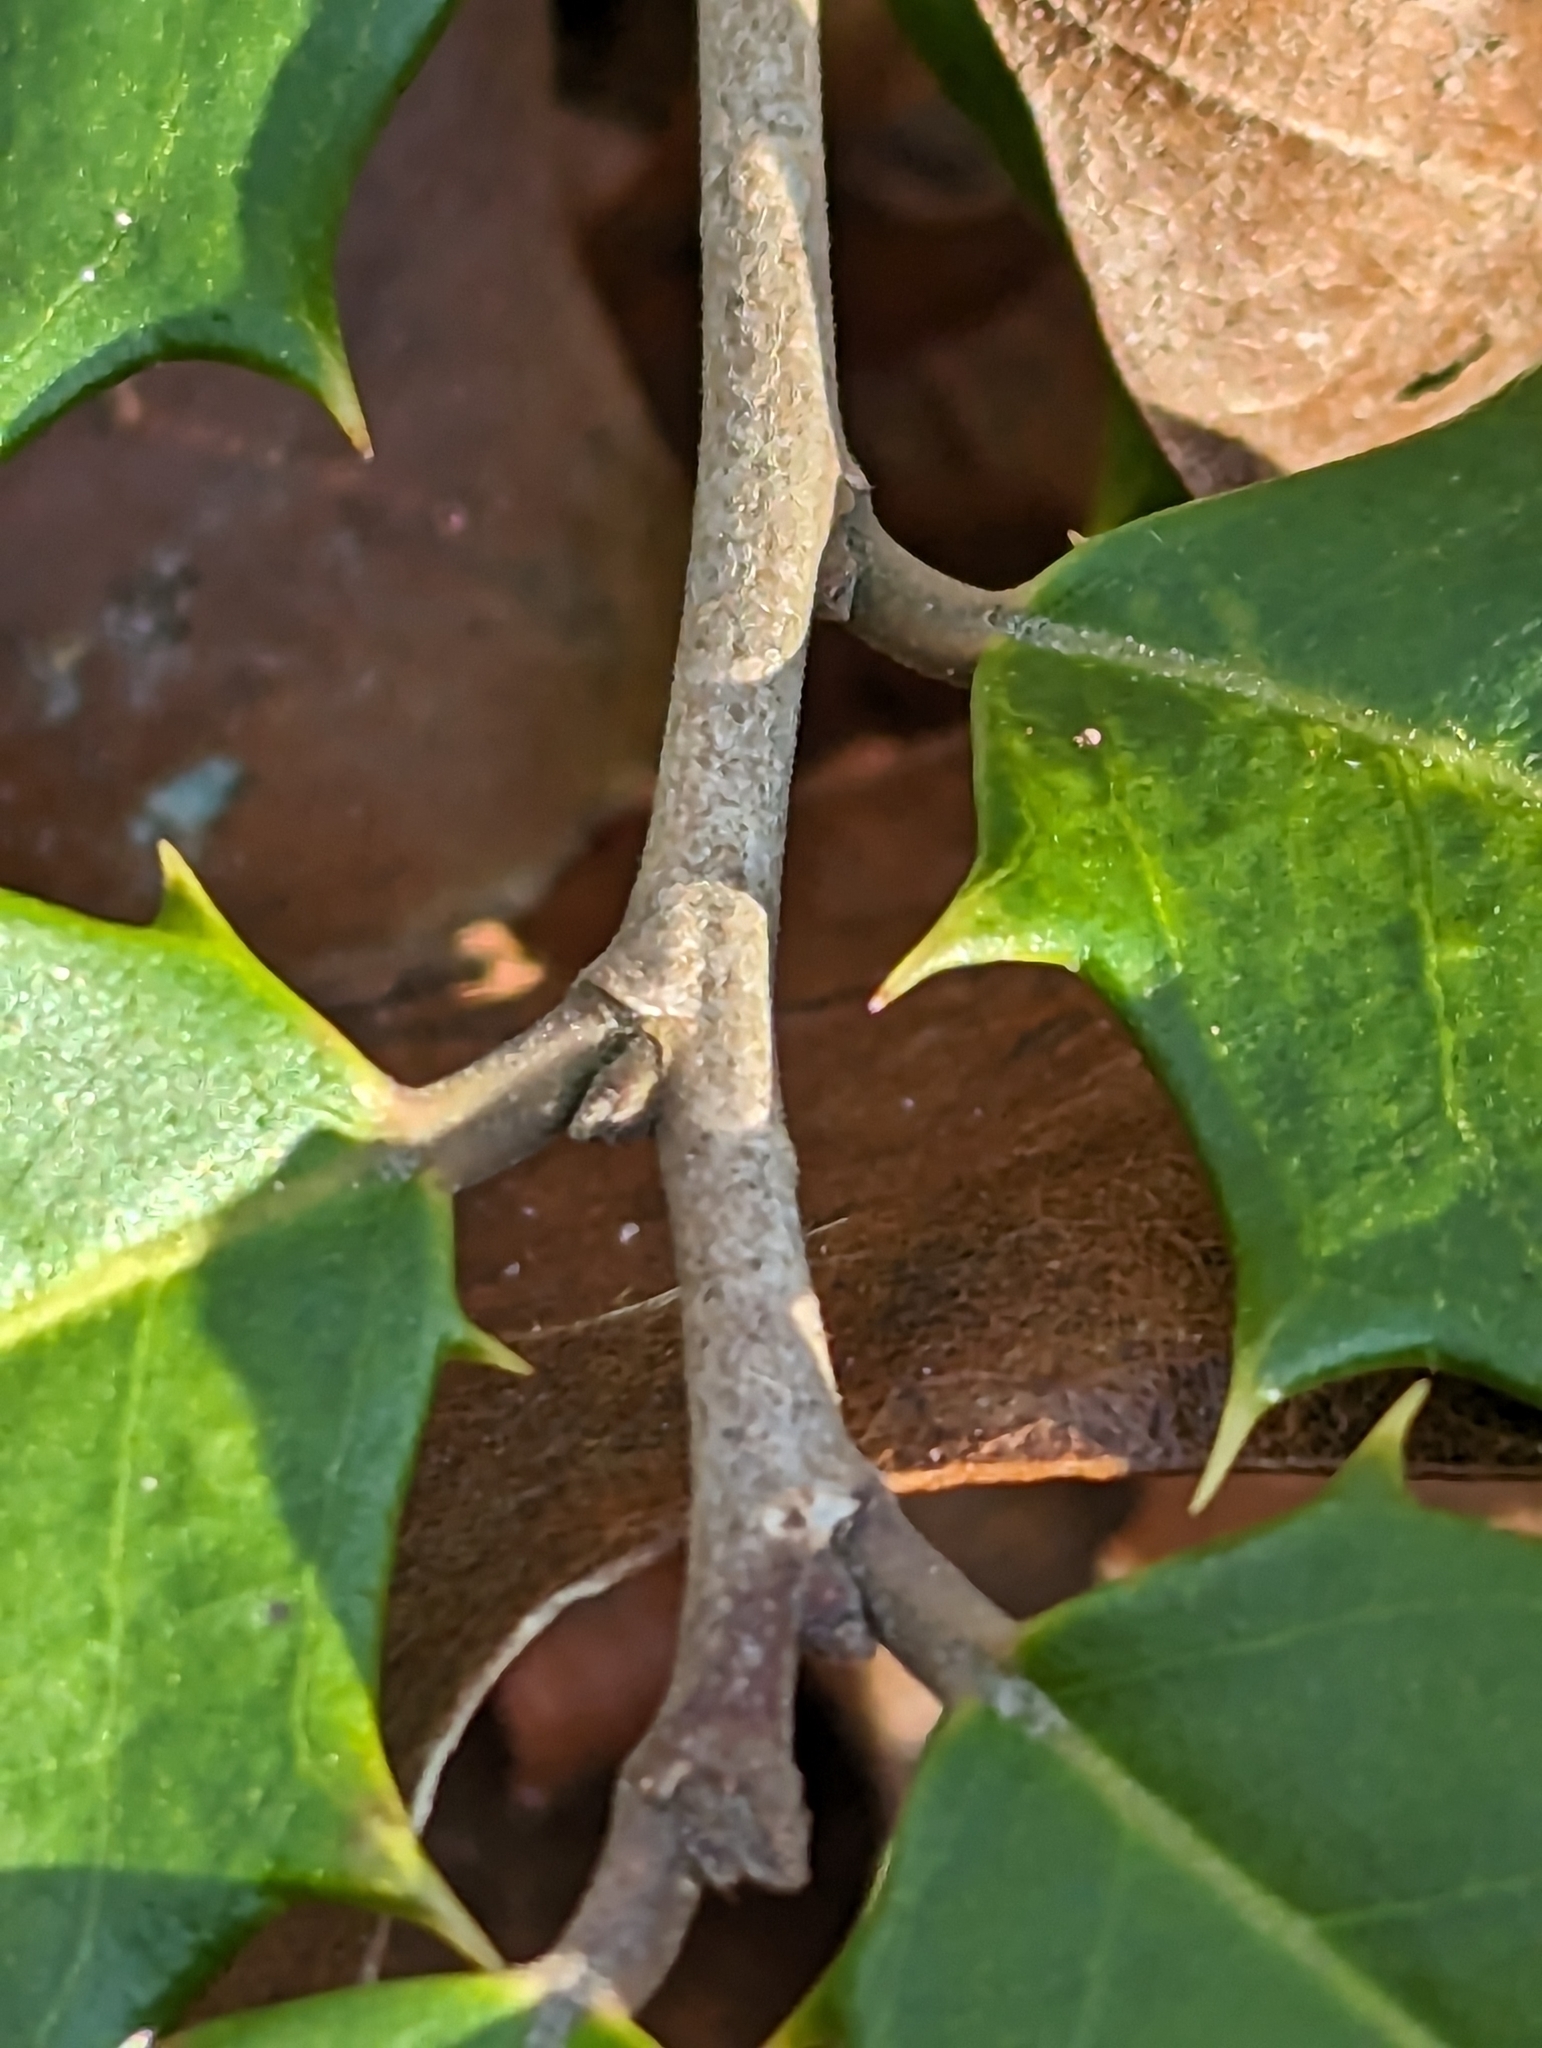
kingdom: Plantae
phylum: Tracheophyta
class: Magnoliopsida
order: Aquifoliales
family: Aquifoliaceae
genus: Ilex
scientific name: Ilex opaca
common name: American holly
